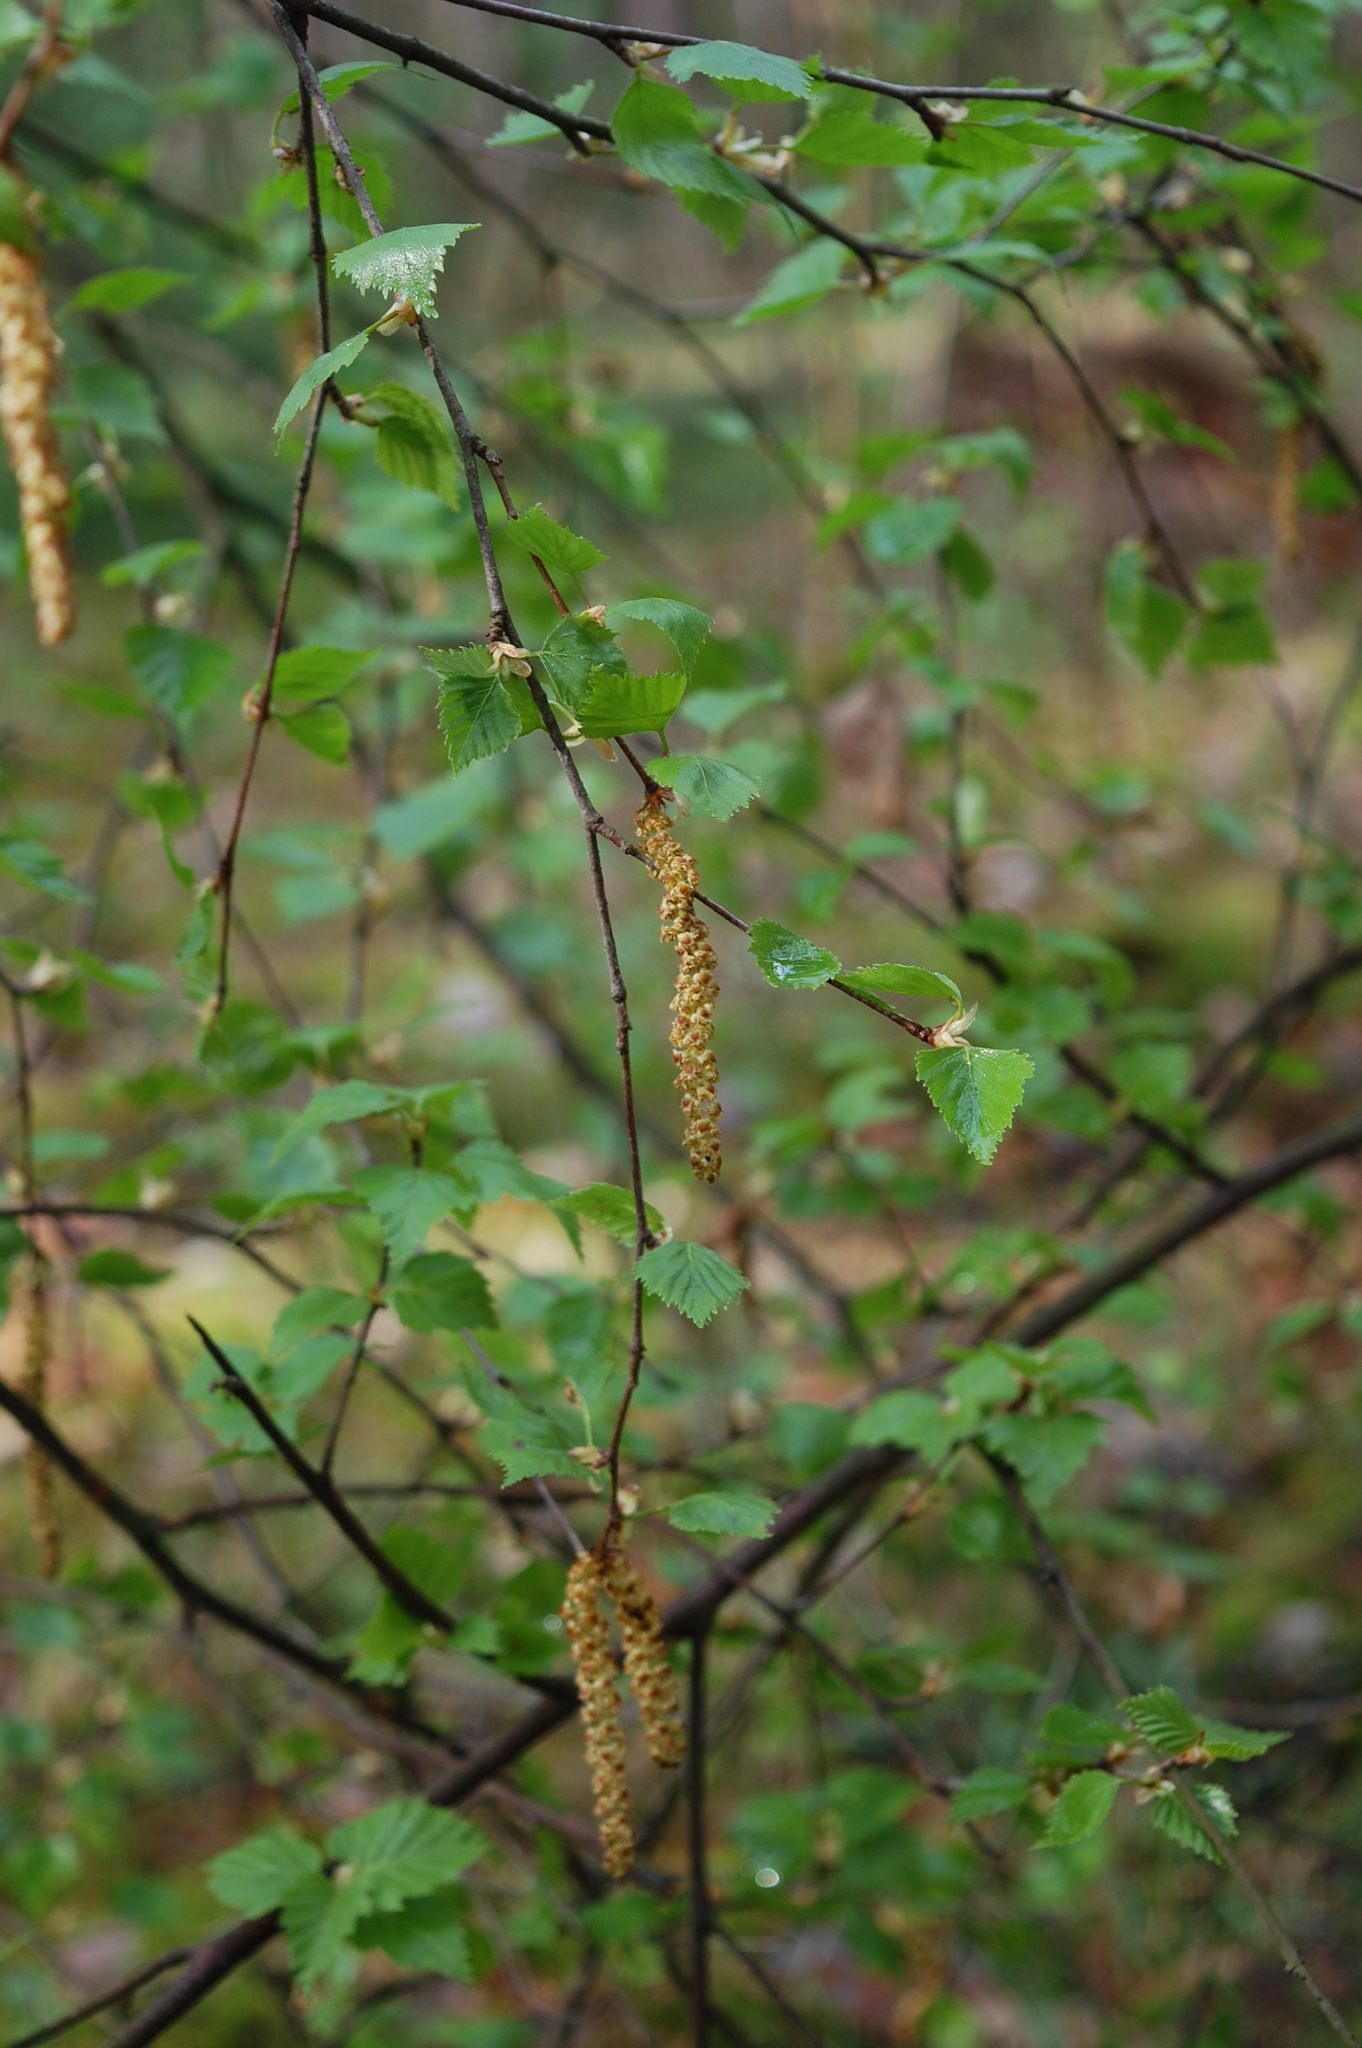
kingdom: Plantae
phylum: Tracheophyta
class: Magnoliopsida
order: Fagales
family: Betulaceae
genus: Betula
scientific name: Betula pendula
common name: Silver birch
